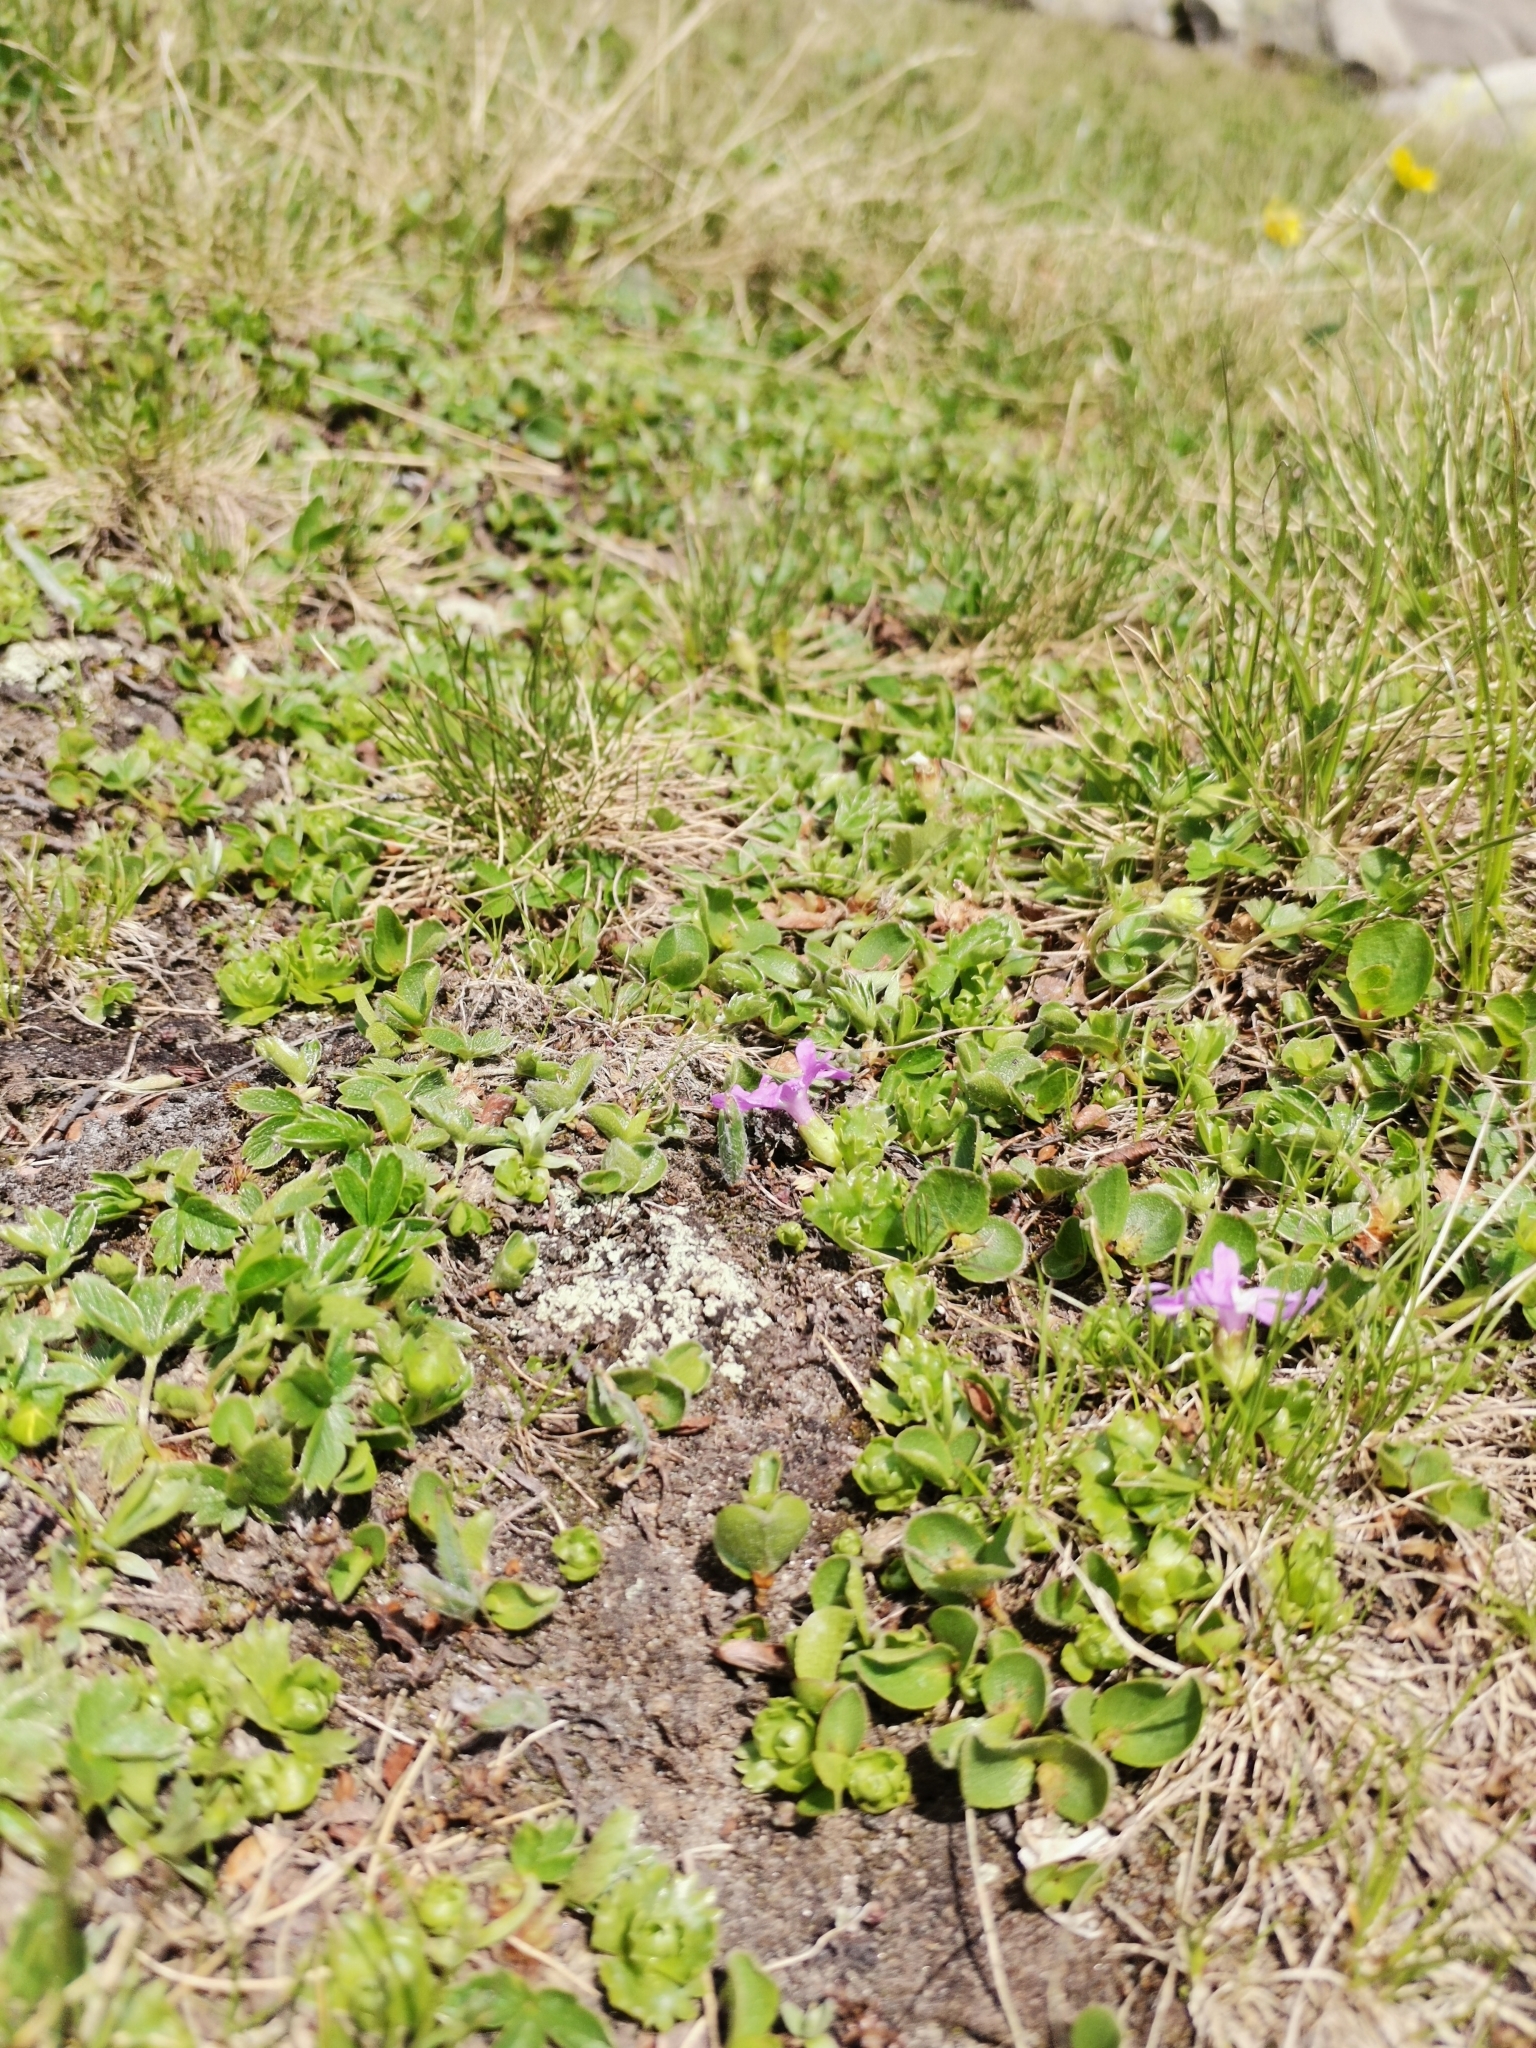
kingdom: Plantae
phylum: Tracheophyta
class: Magnoliopsida
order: Ericales
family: Primulaceae
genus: Primula
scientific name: Primula minima
